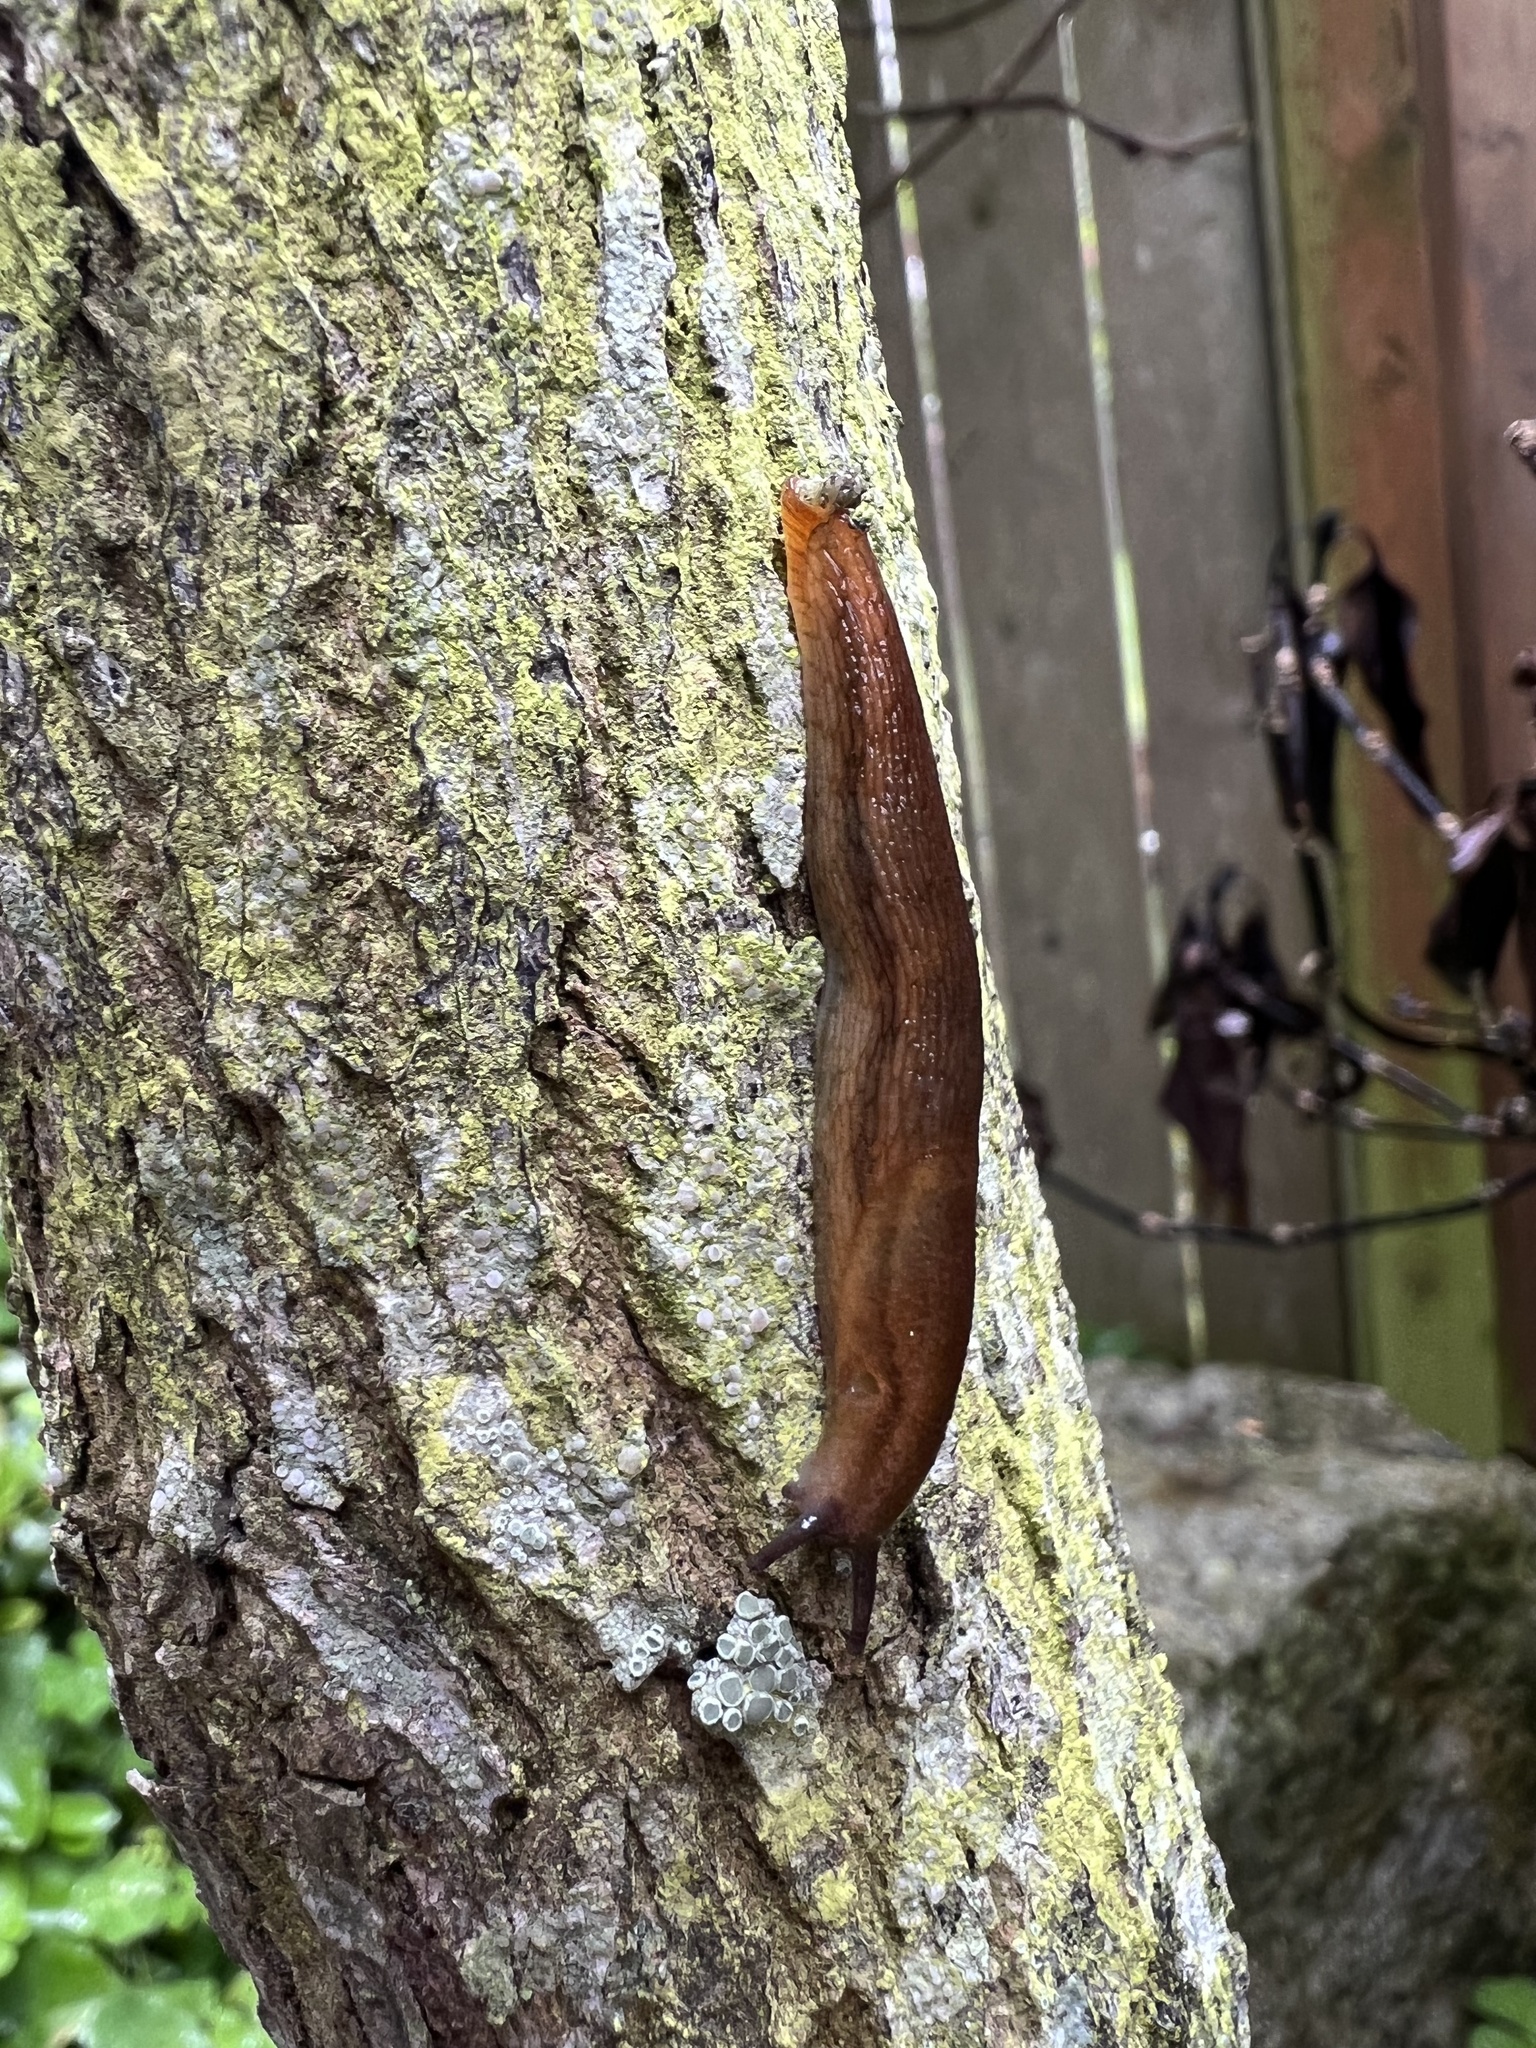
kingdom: Animalia
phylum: Mollusca
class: Gastropoda
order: Stylommatophora
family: Arionidae
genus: Arion
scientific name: Arion subfuscus
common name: Dusky arion
